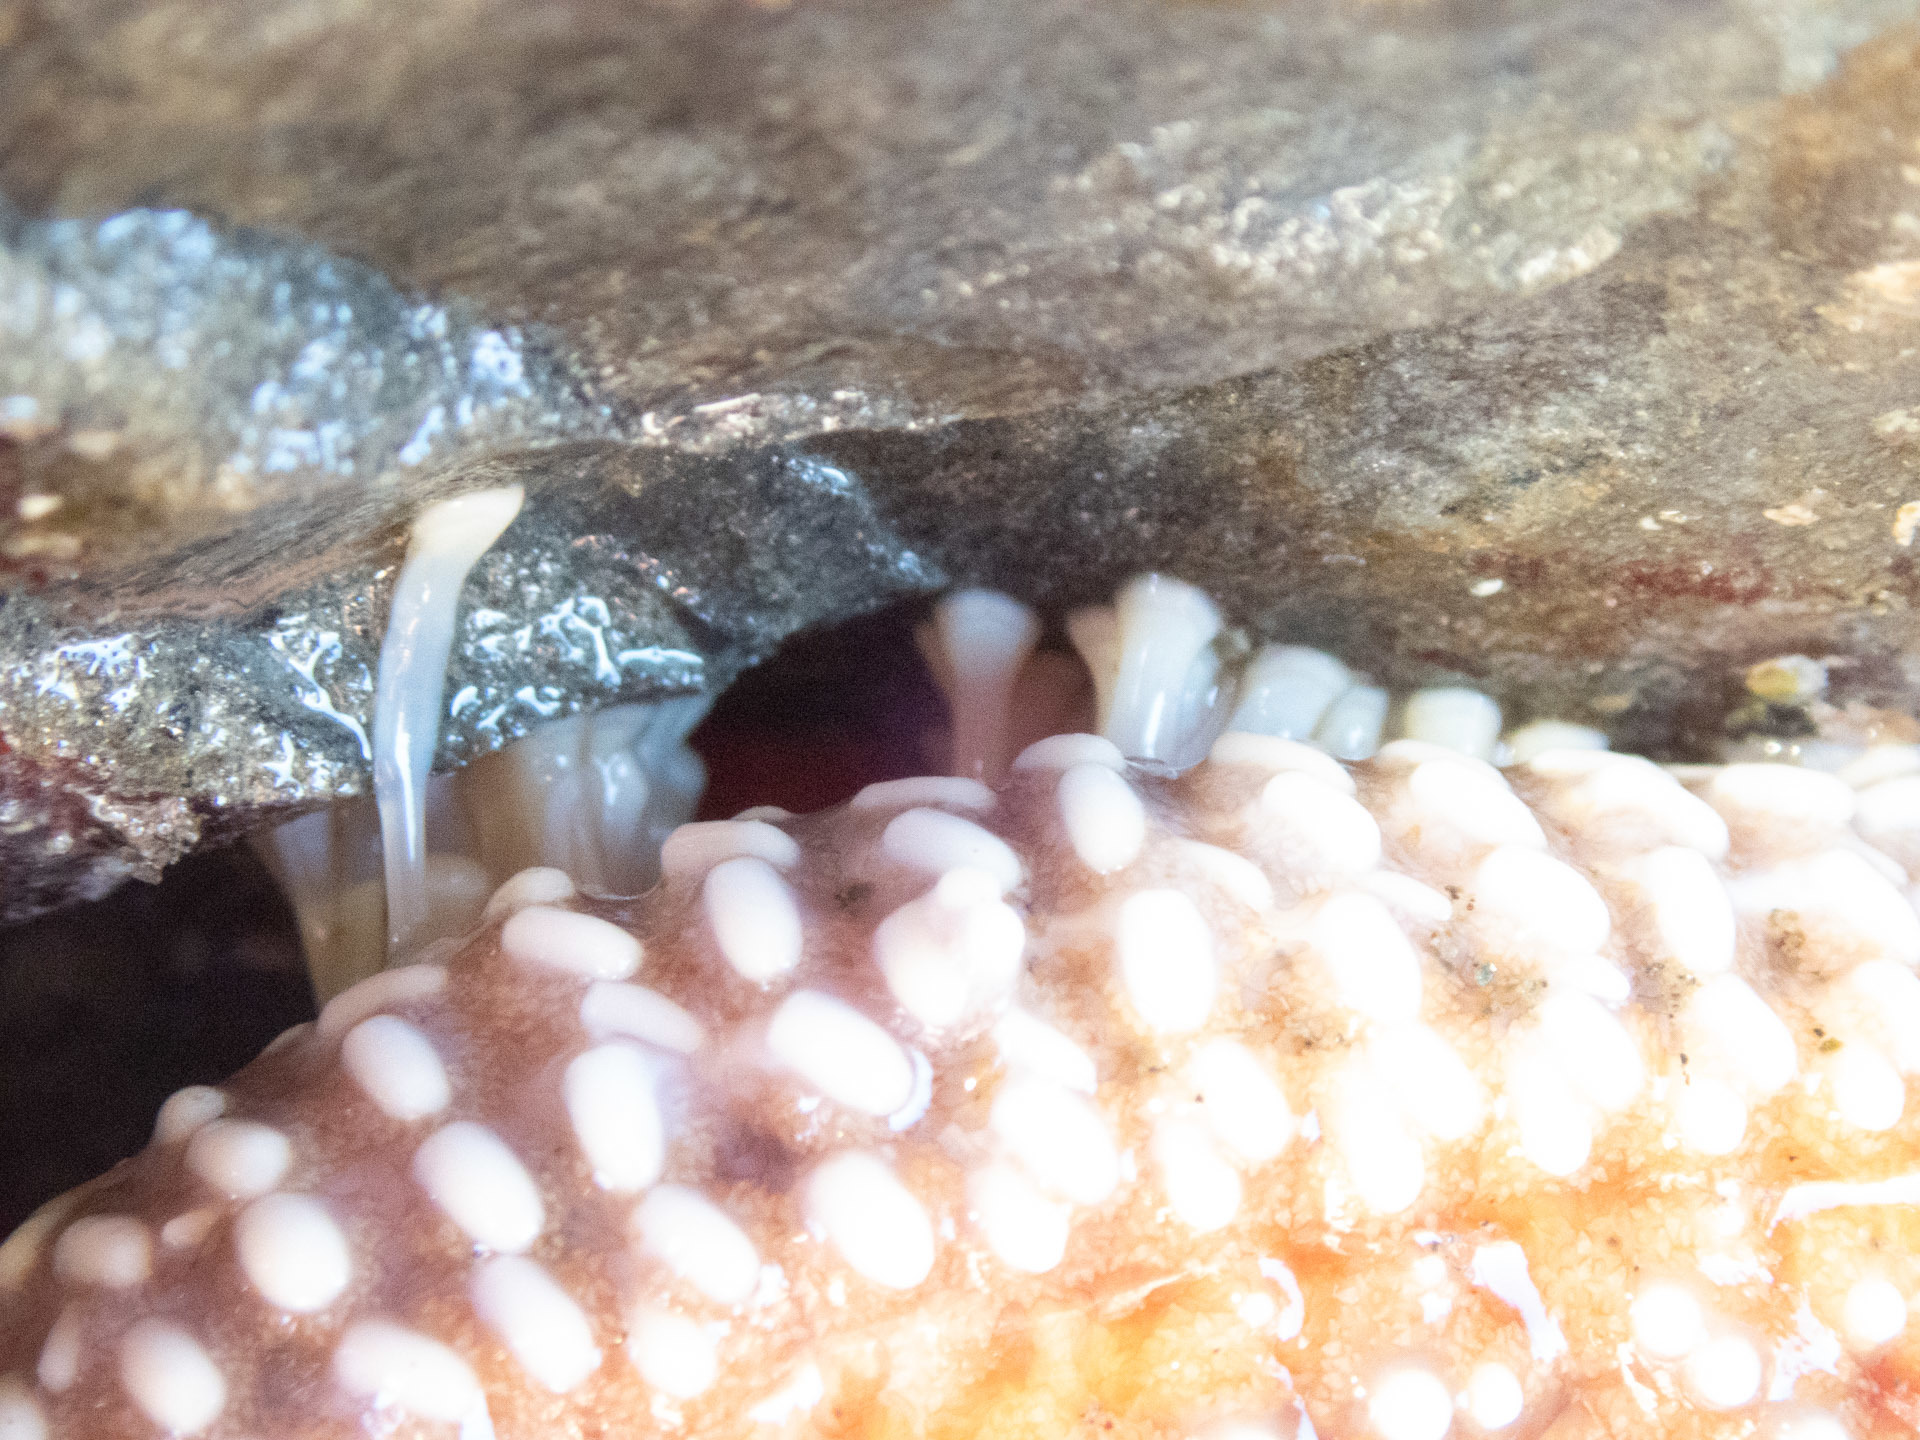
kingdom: Animalia
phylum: Echinodermata
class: Asteroidea
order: Forcipulatida
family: Asteriidae
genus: Pisaster
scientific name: Pisaster ochraceus
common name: Ochre stars
